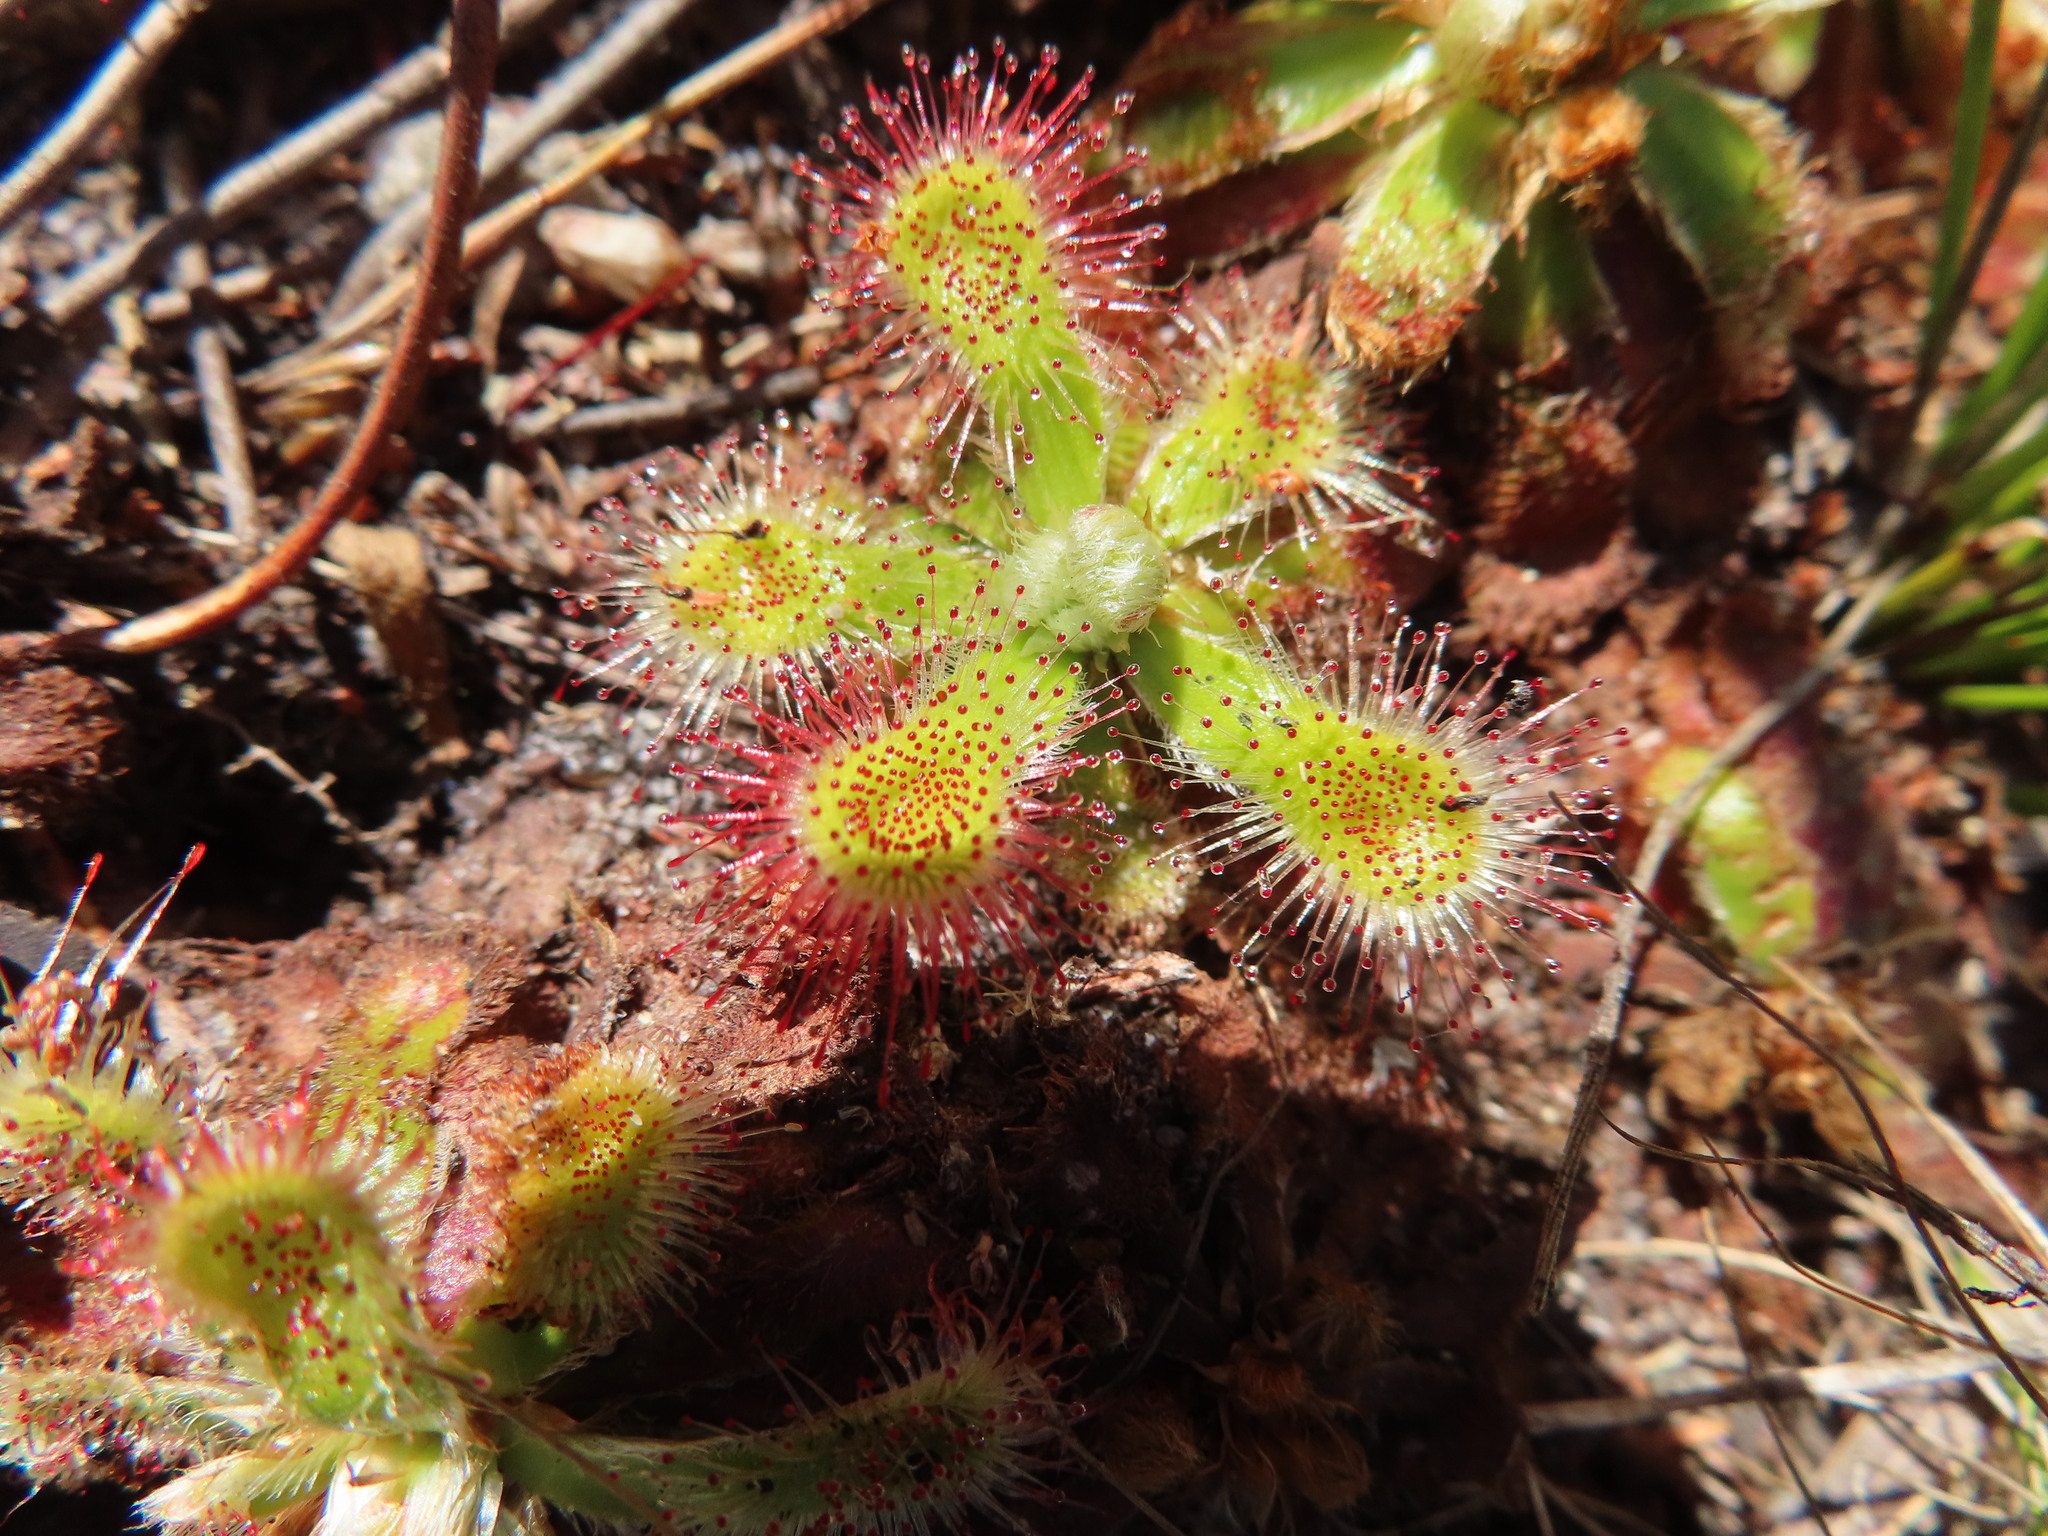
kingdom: Plantae
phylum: Tracheophyta
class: Magnoliopsida
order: Caryophyllales
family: Droseraceae
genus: Drosera
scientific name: Drosera aliciae
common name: Alice sundew
